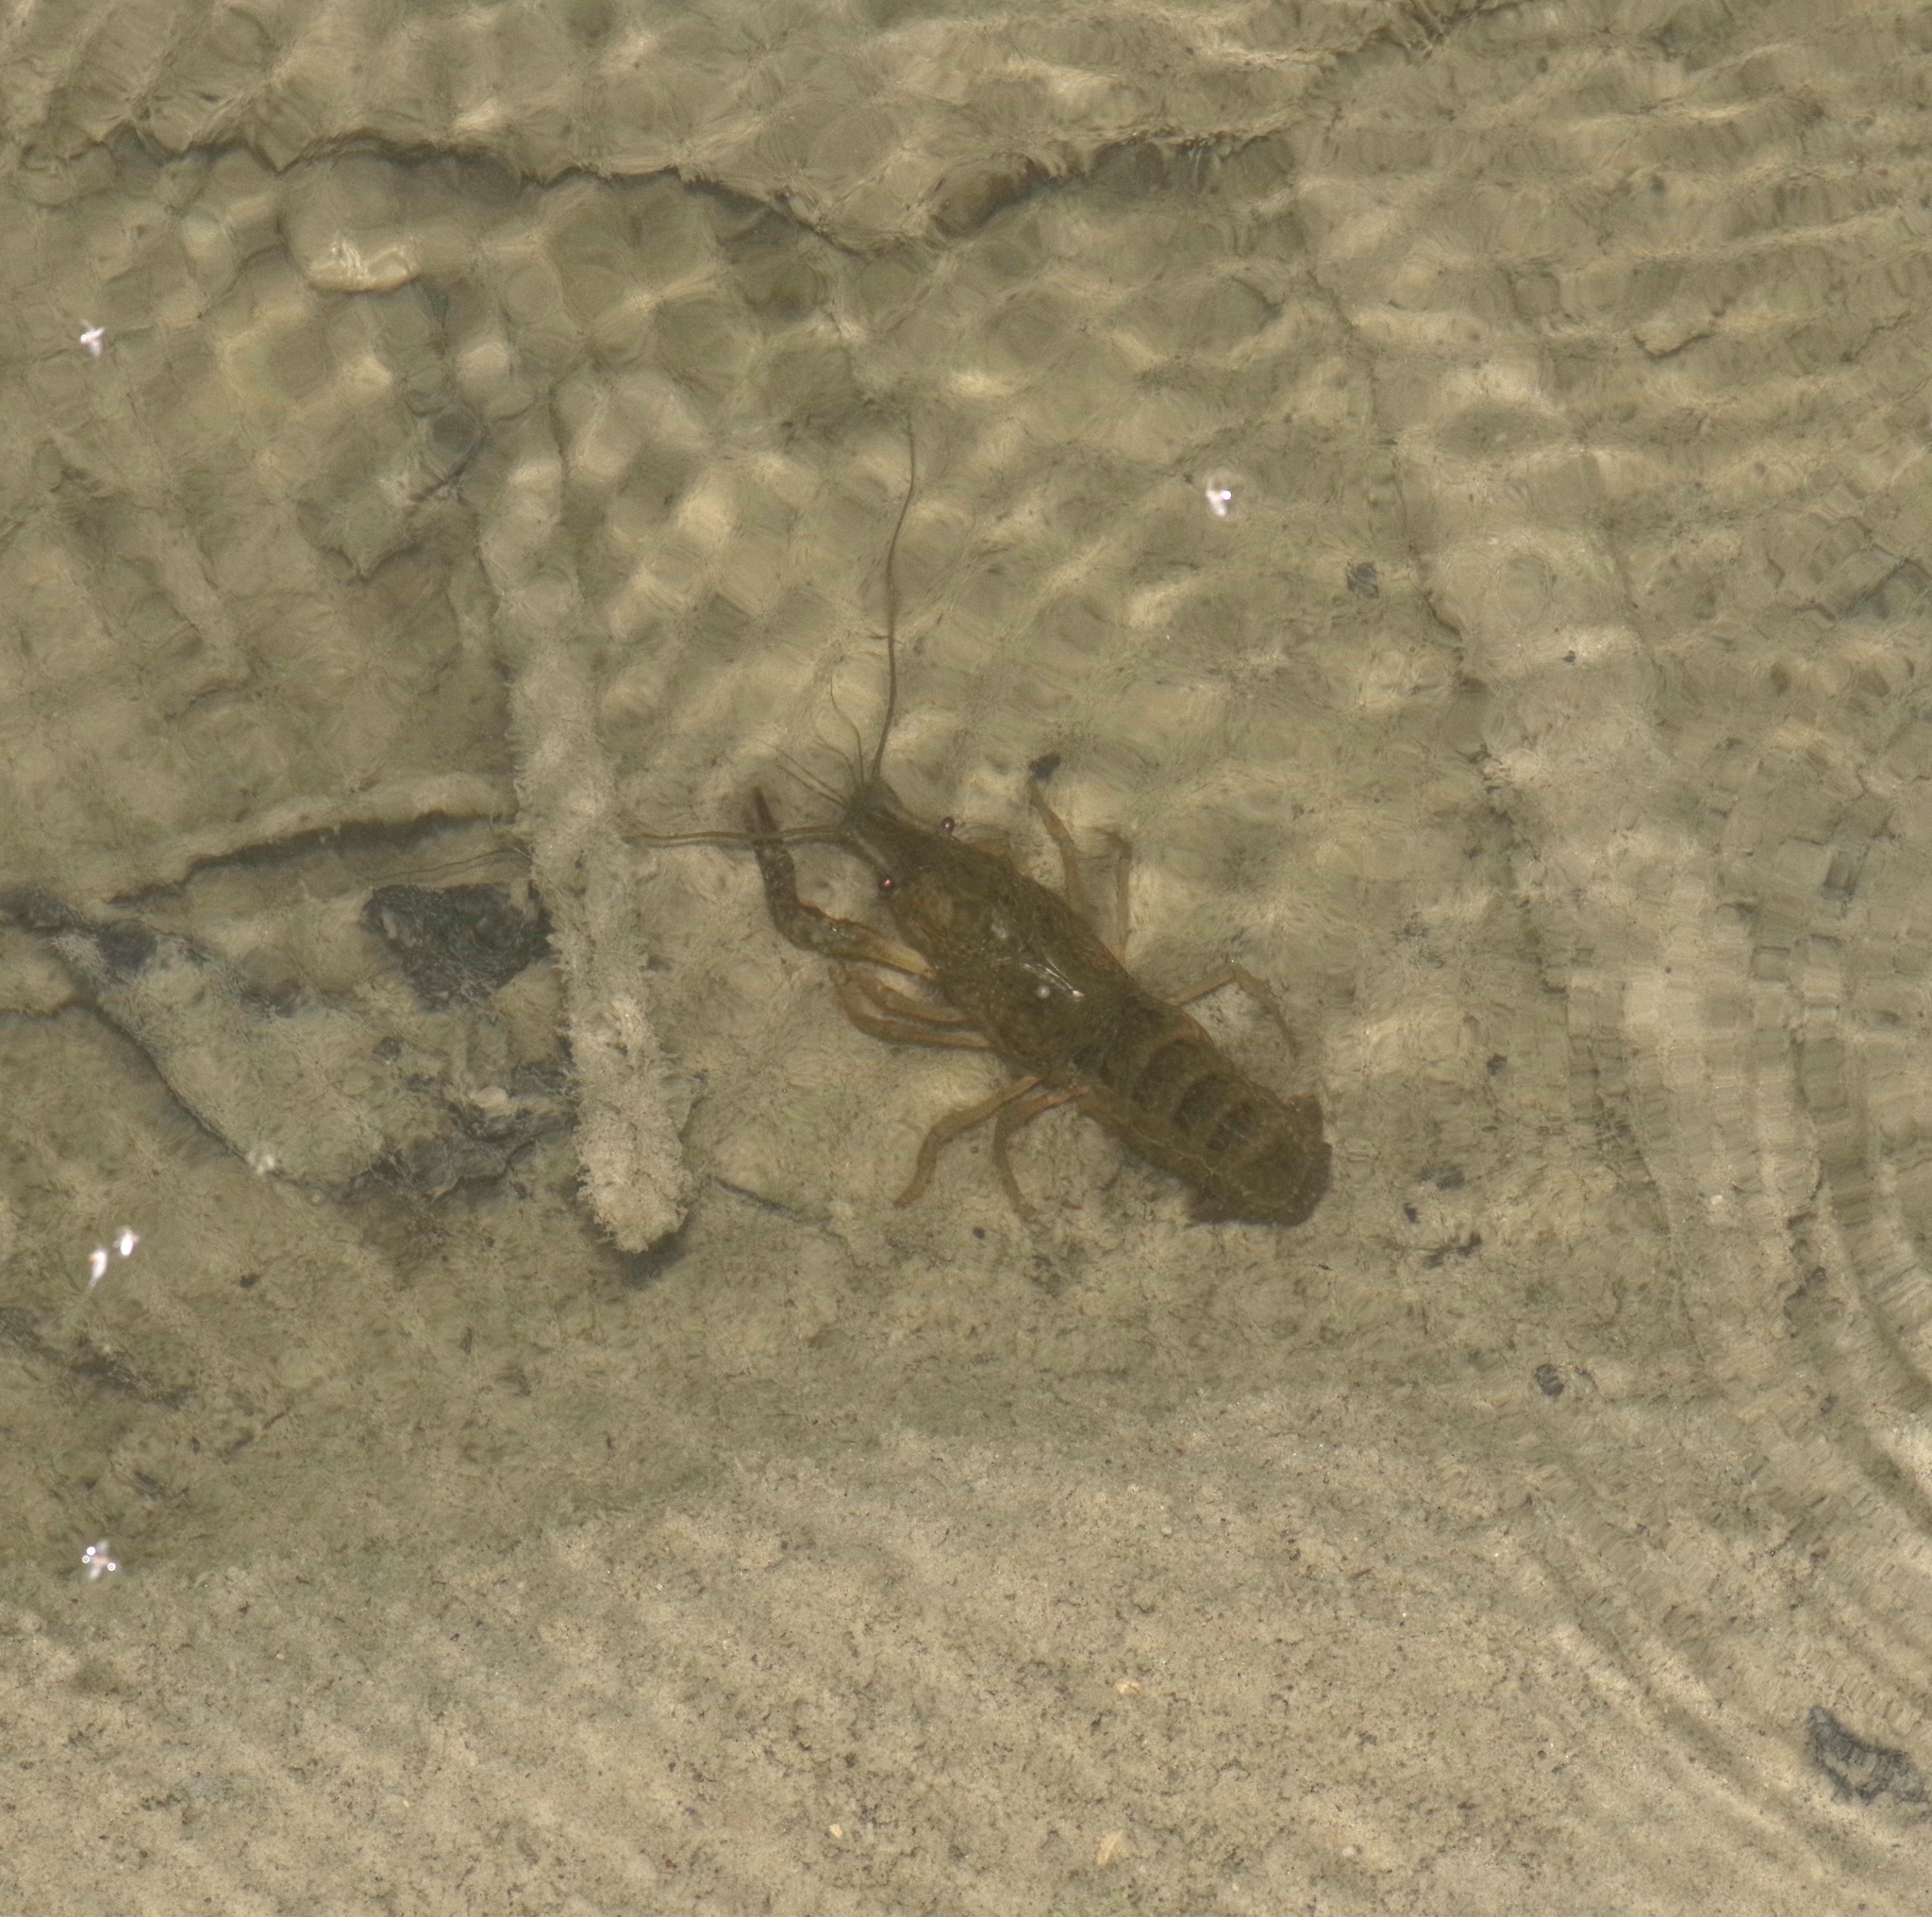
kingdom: Animalia
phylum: Arthropoda
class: Malacostraca
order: Decapoda
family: Cambaridae
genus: Procambarus
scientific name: Procambarus clarkii
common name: Red swamp crayfish
